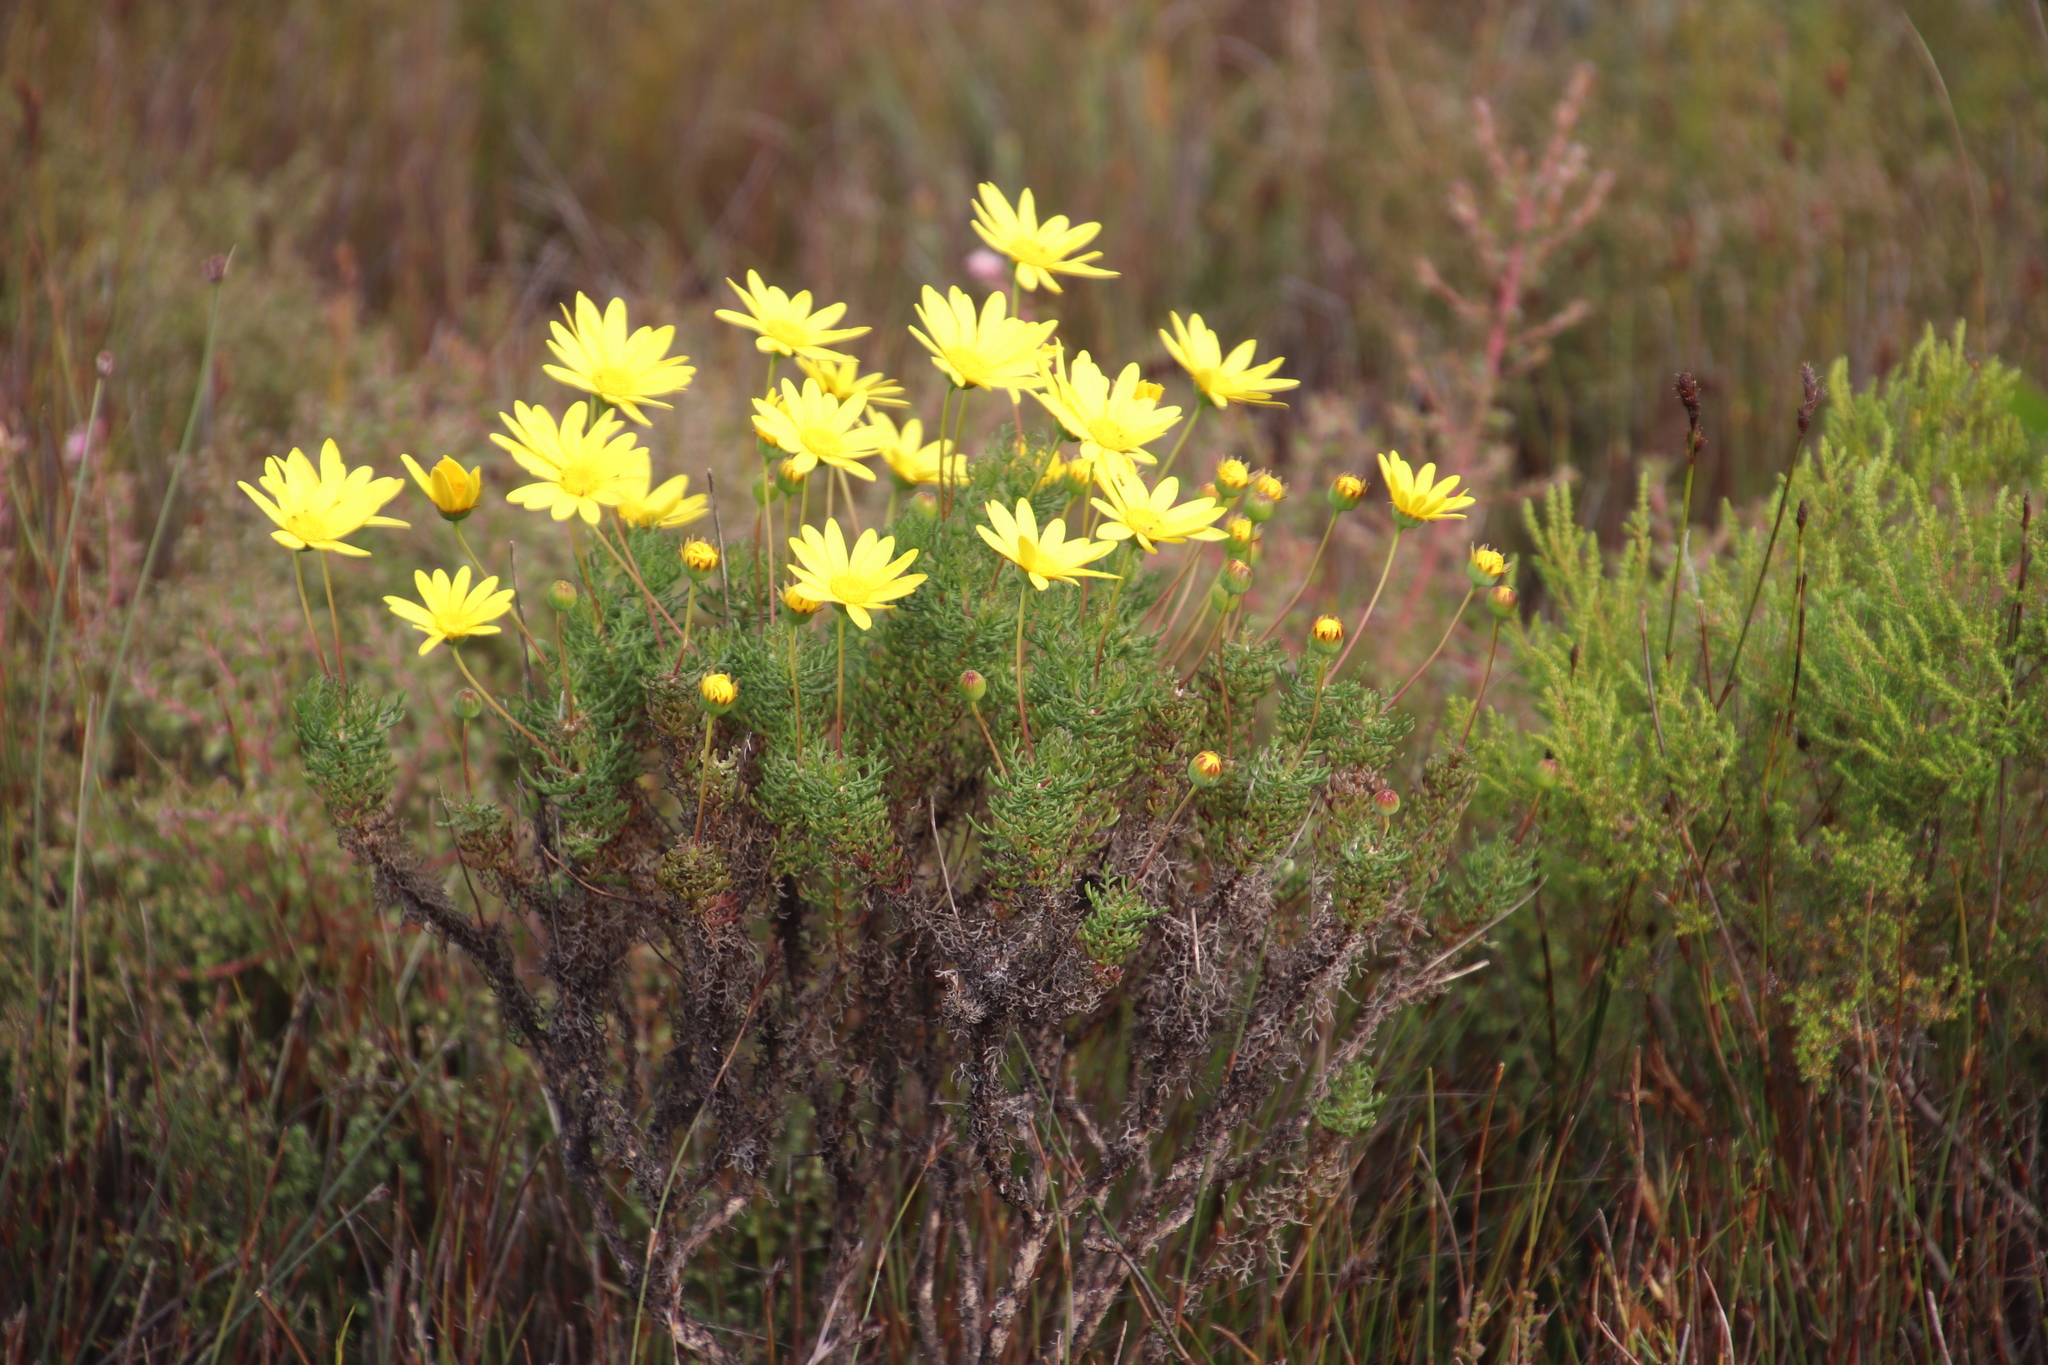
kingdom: Plantae
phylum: Tracheophyta
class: Magnoliopsida
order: Asterales
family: Asteraceae
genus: Euryops
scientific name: Euryops abrotanifolius
